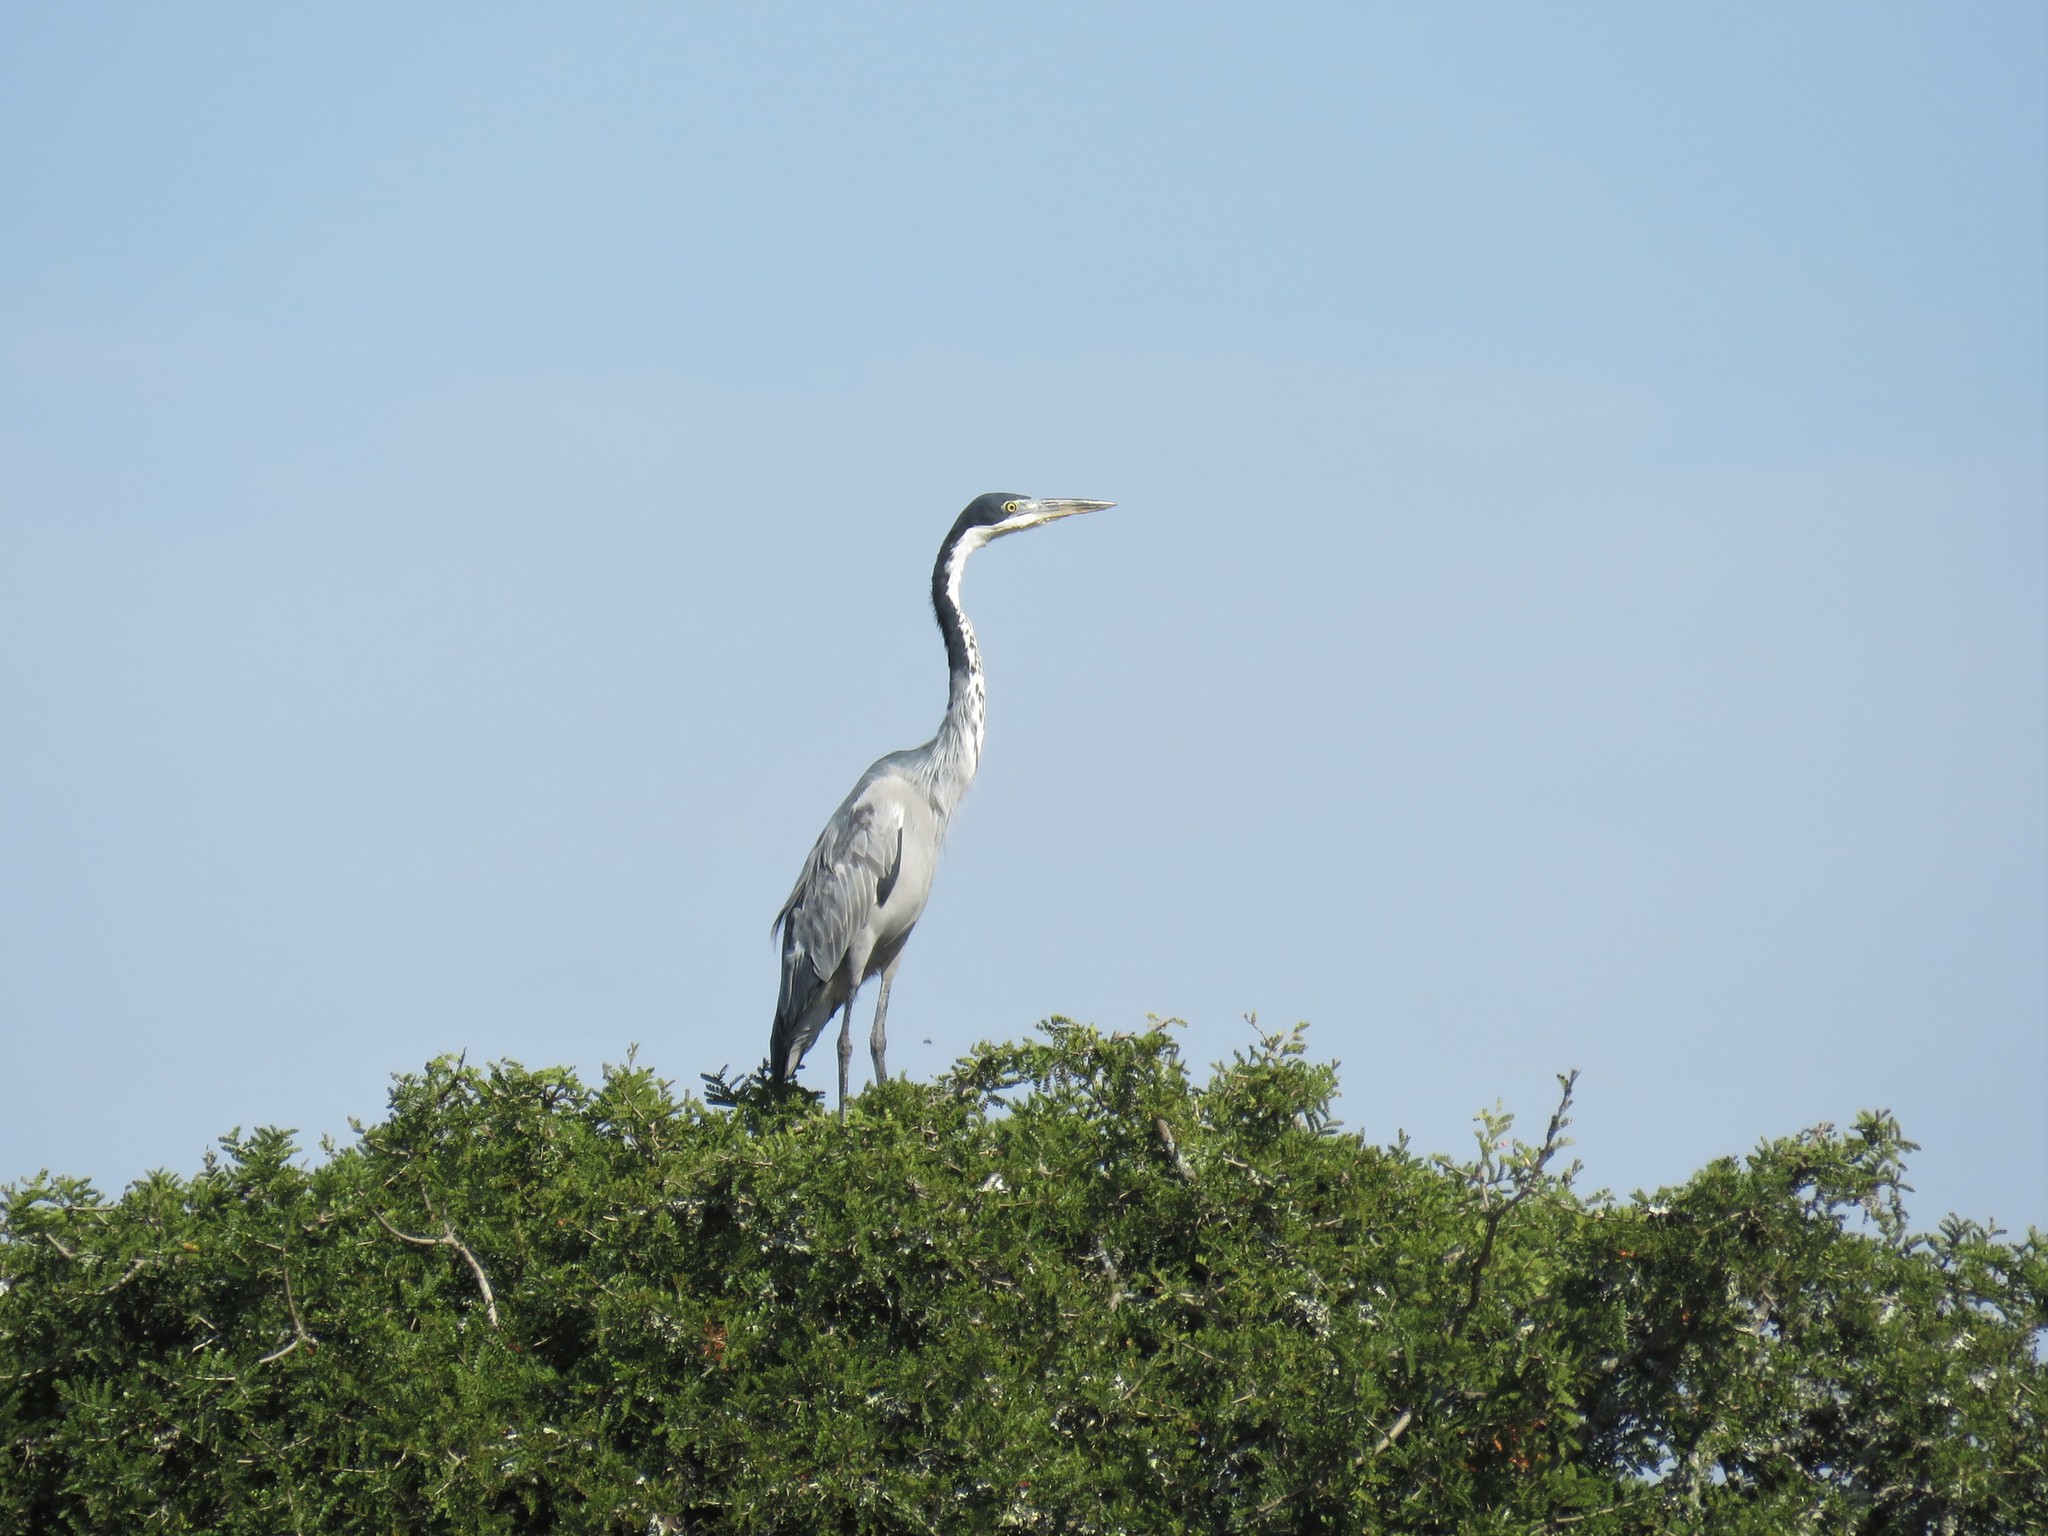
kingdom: Animalia
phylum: Chordata
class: Aves
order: Pelecaniformes
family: Ardeidae
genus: Ardea
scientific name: Ardea melanocephala
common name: Black-headed heron
